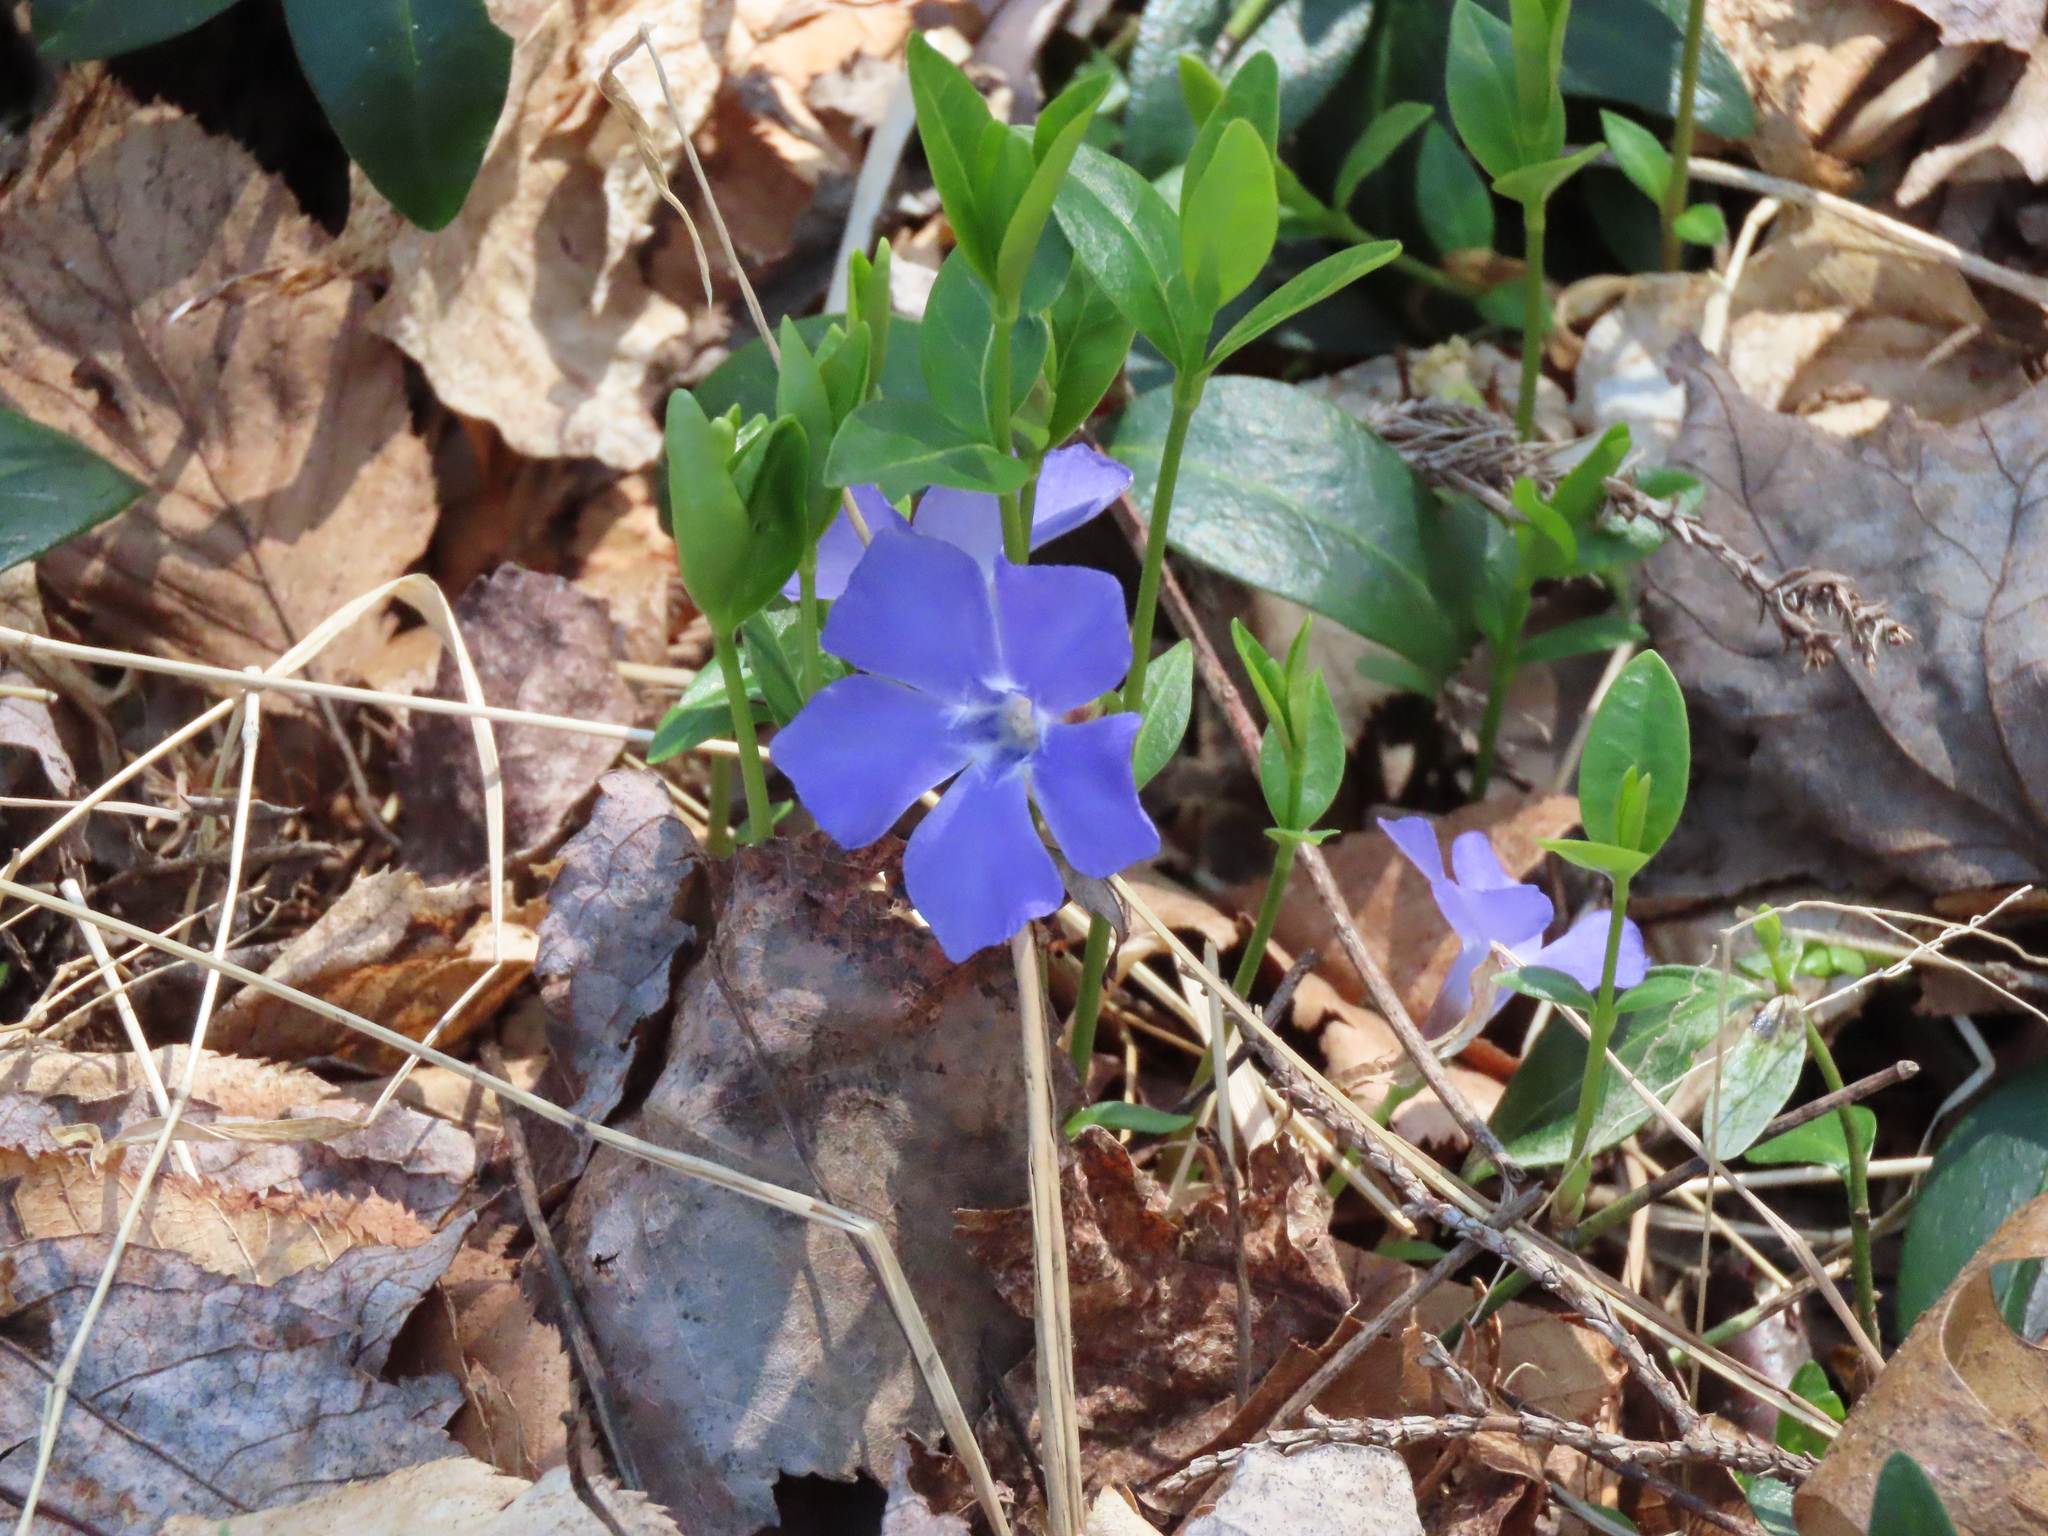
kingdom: Plantae
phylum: Tracheophyta
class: Magnoliopsida
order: Gentianales
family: Apocynaceae
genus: Vinca
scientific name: Vinca minor
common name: Lesser periwinkle
